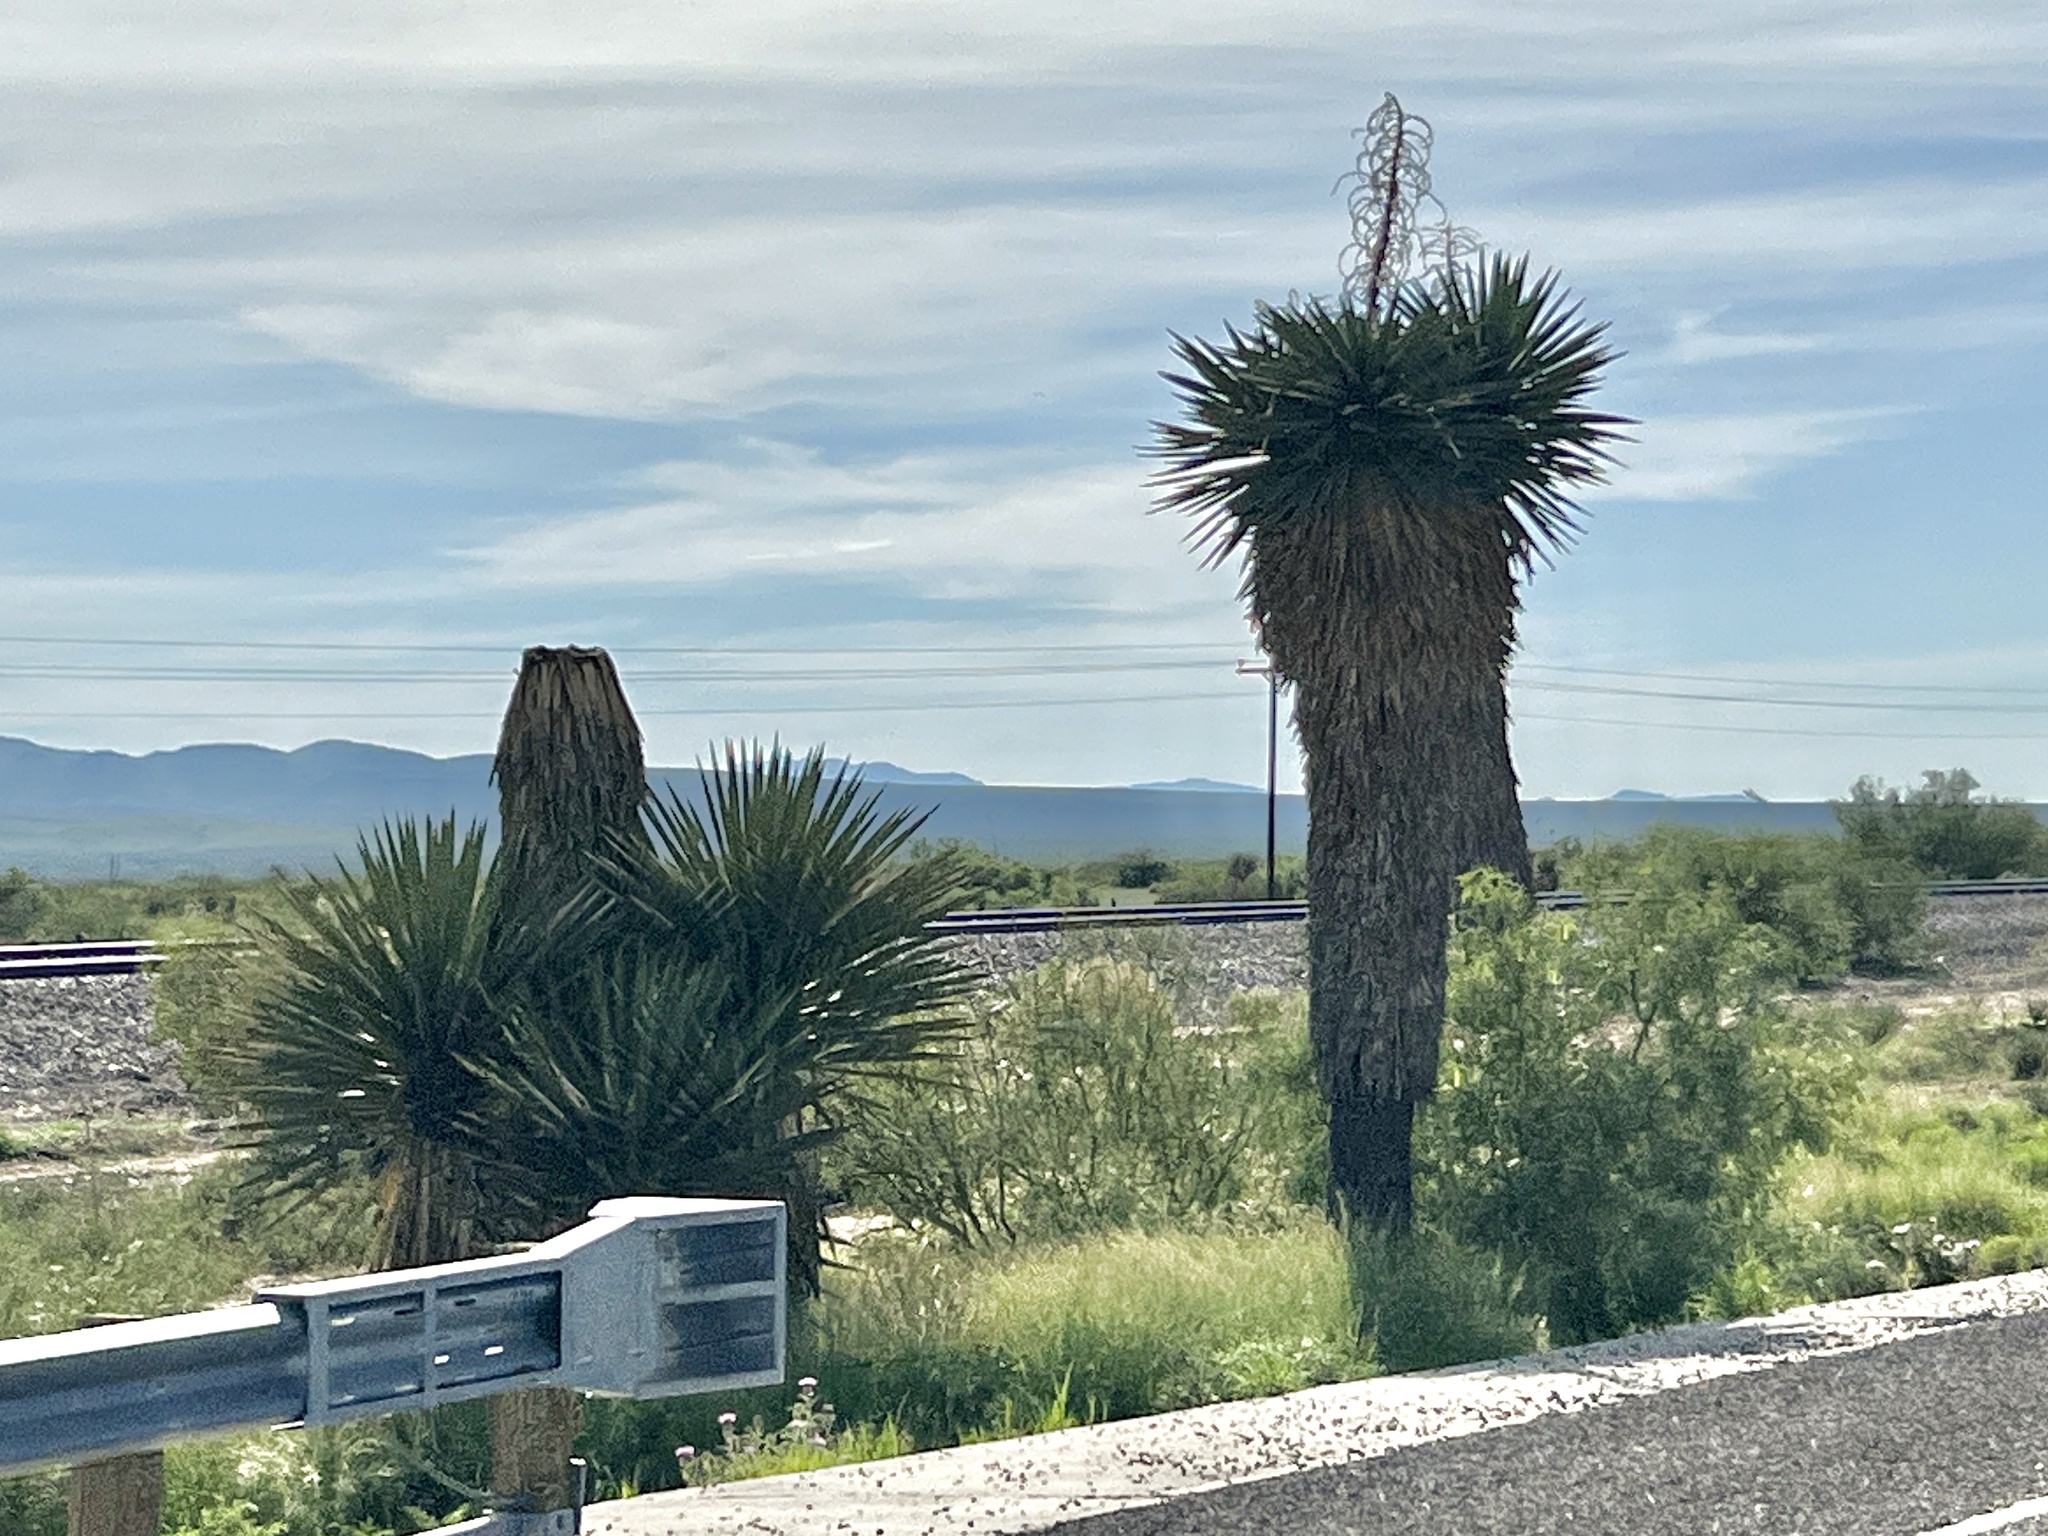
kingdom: Plantae
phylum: Tracheophyta
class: Liliopsida
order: Asparagales
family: Asparagaceae
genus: Yucca
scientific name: Yucca faxoniana
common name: Spanish dagger
